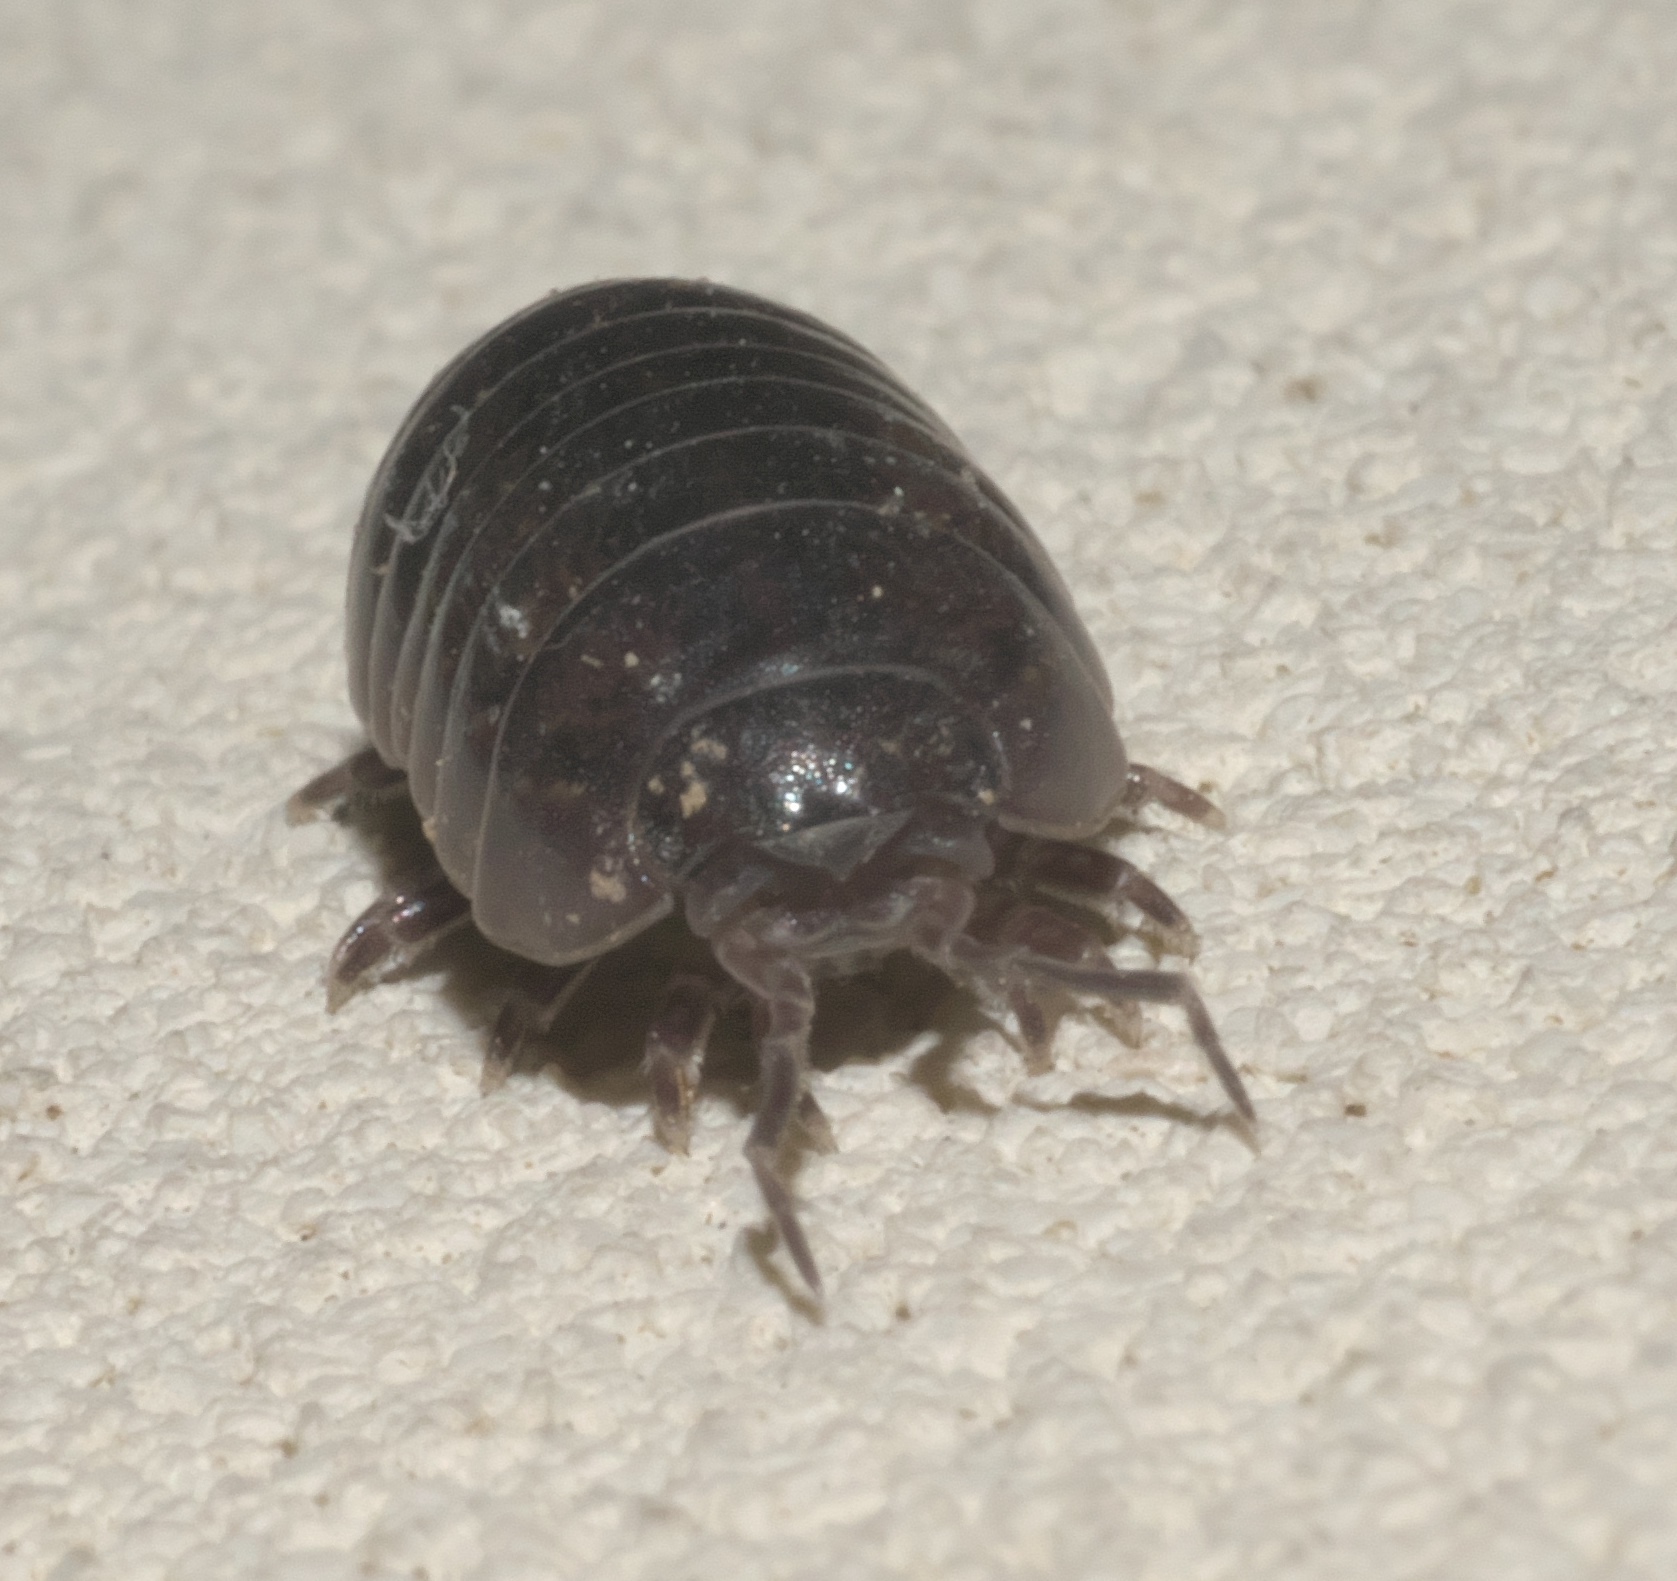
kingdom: Animalia
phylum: Arthropoda
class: Malacostraca
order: Isopoda
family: Armadillidiidae
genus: Armadillidium
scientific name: Armadillidium vulgare
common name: Common pill woodlouse
